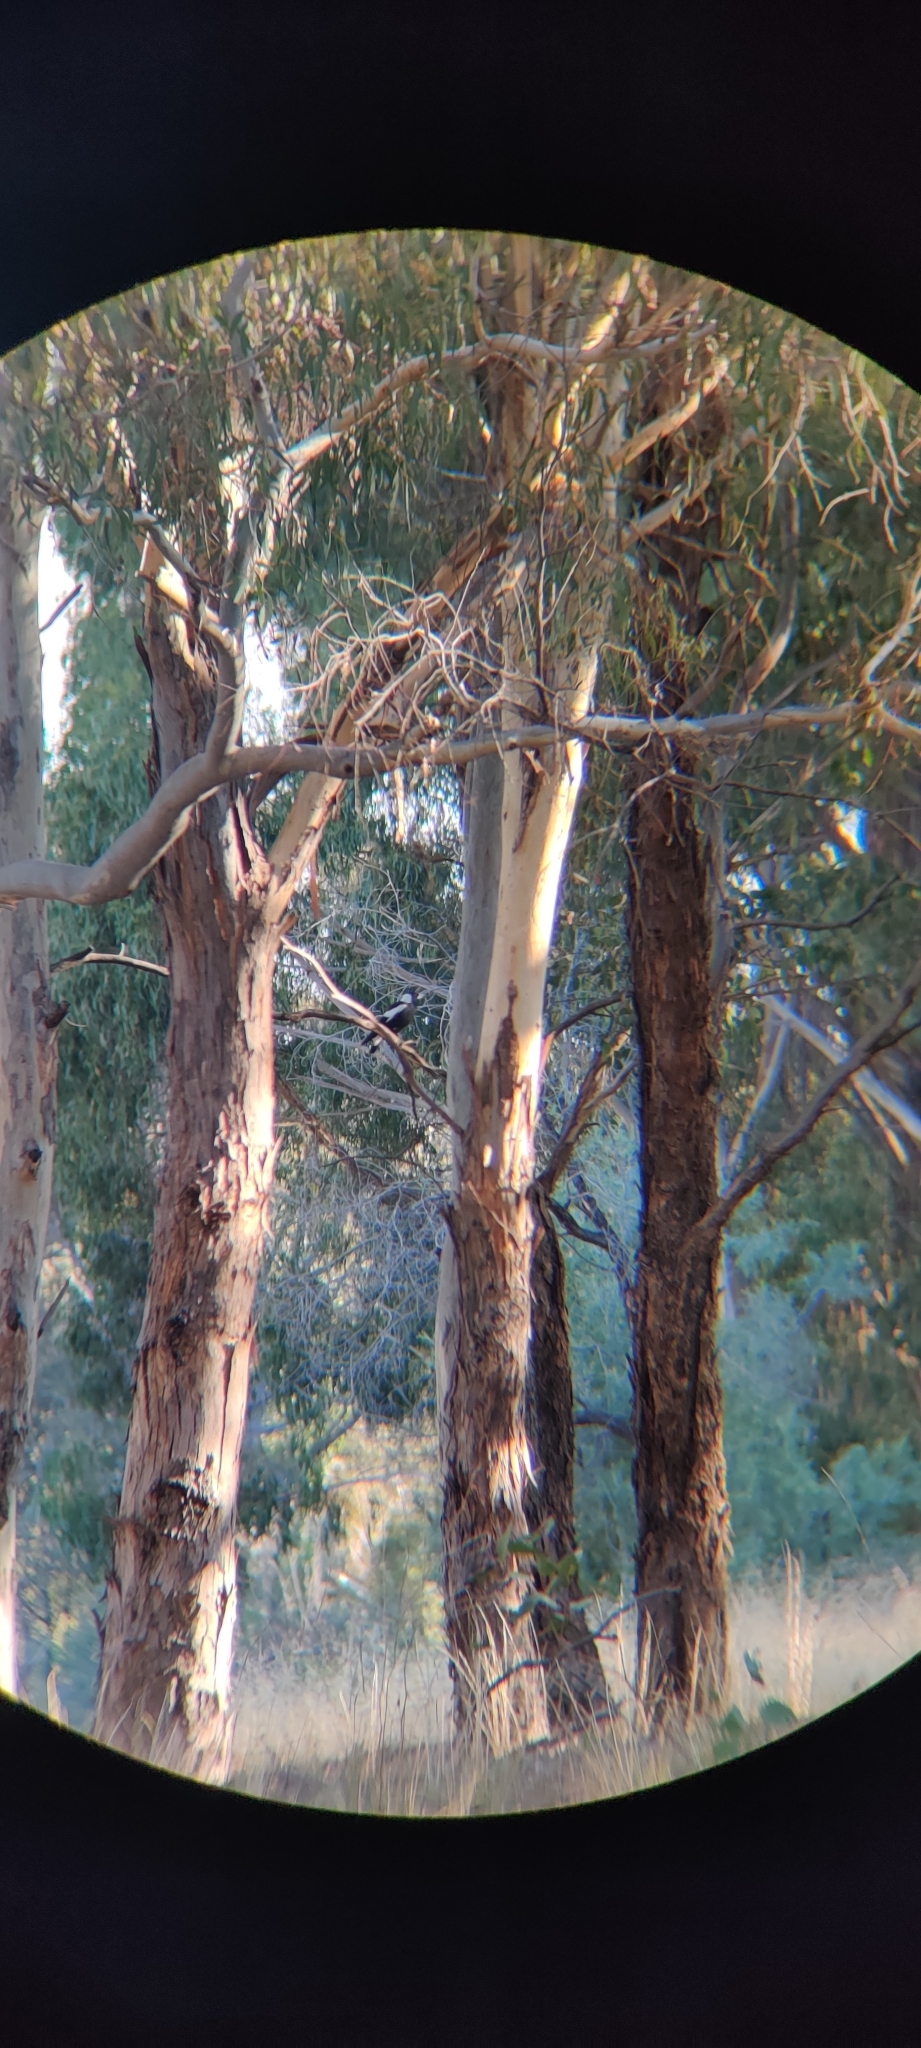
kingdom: Animalia
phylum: Chordata
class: Aves
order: Passeriformes
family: Cracticidae
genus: Gymnorhina
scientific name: Gymnorhina tibicen
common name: Australian magpie
